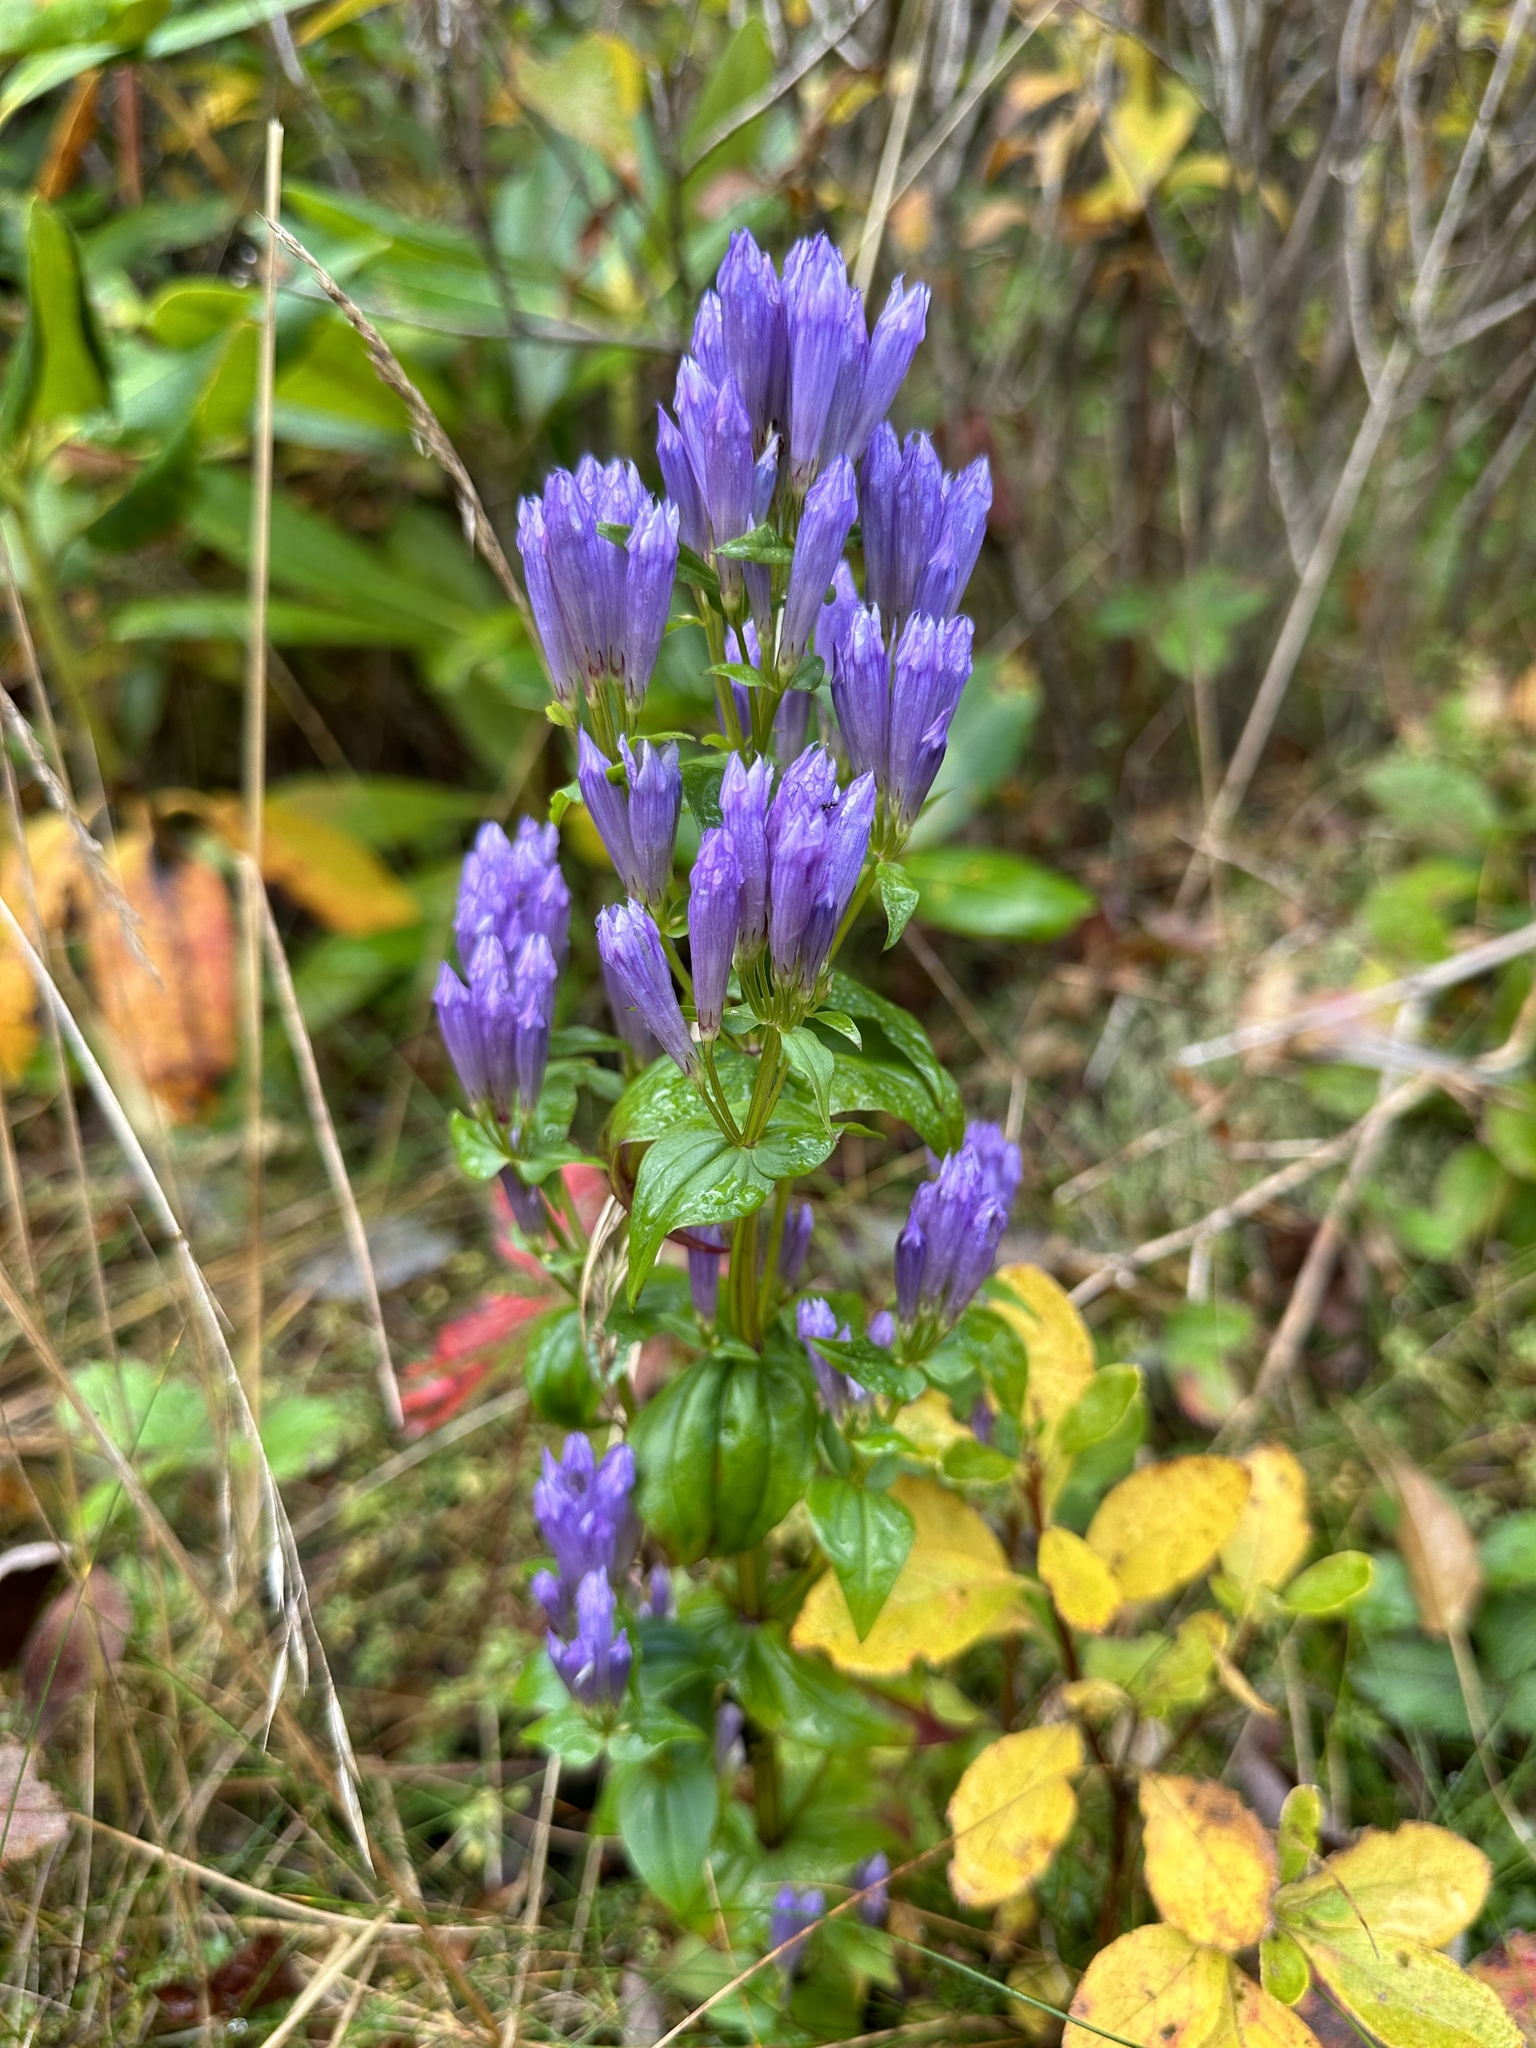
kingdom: Plantae
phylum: Tracheophyta
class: Magnoliopsida
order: Gentianales
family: Gentianaceae
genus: Gentianella
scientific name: Gentianella quinquefolia
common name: Agueweed
